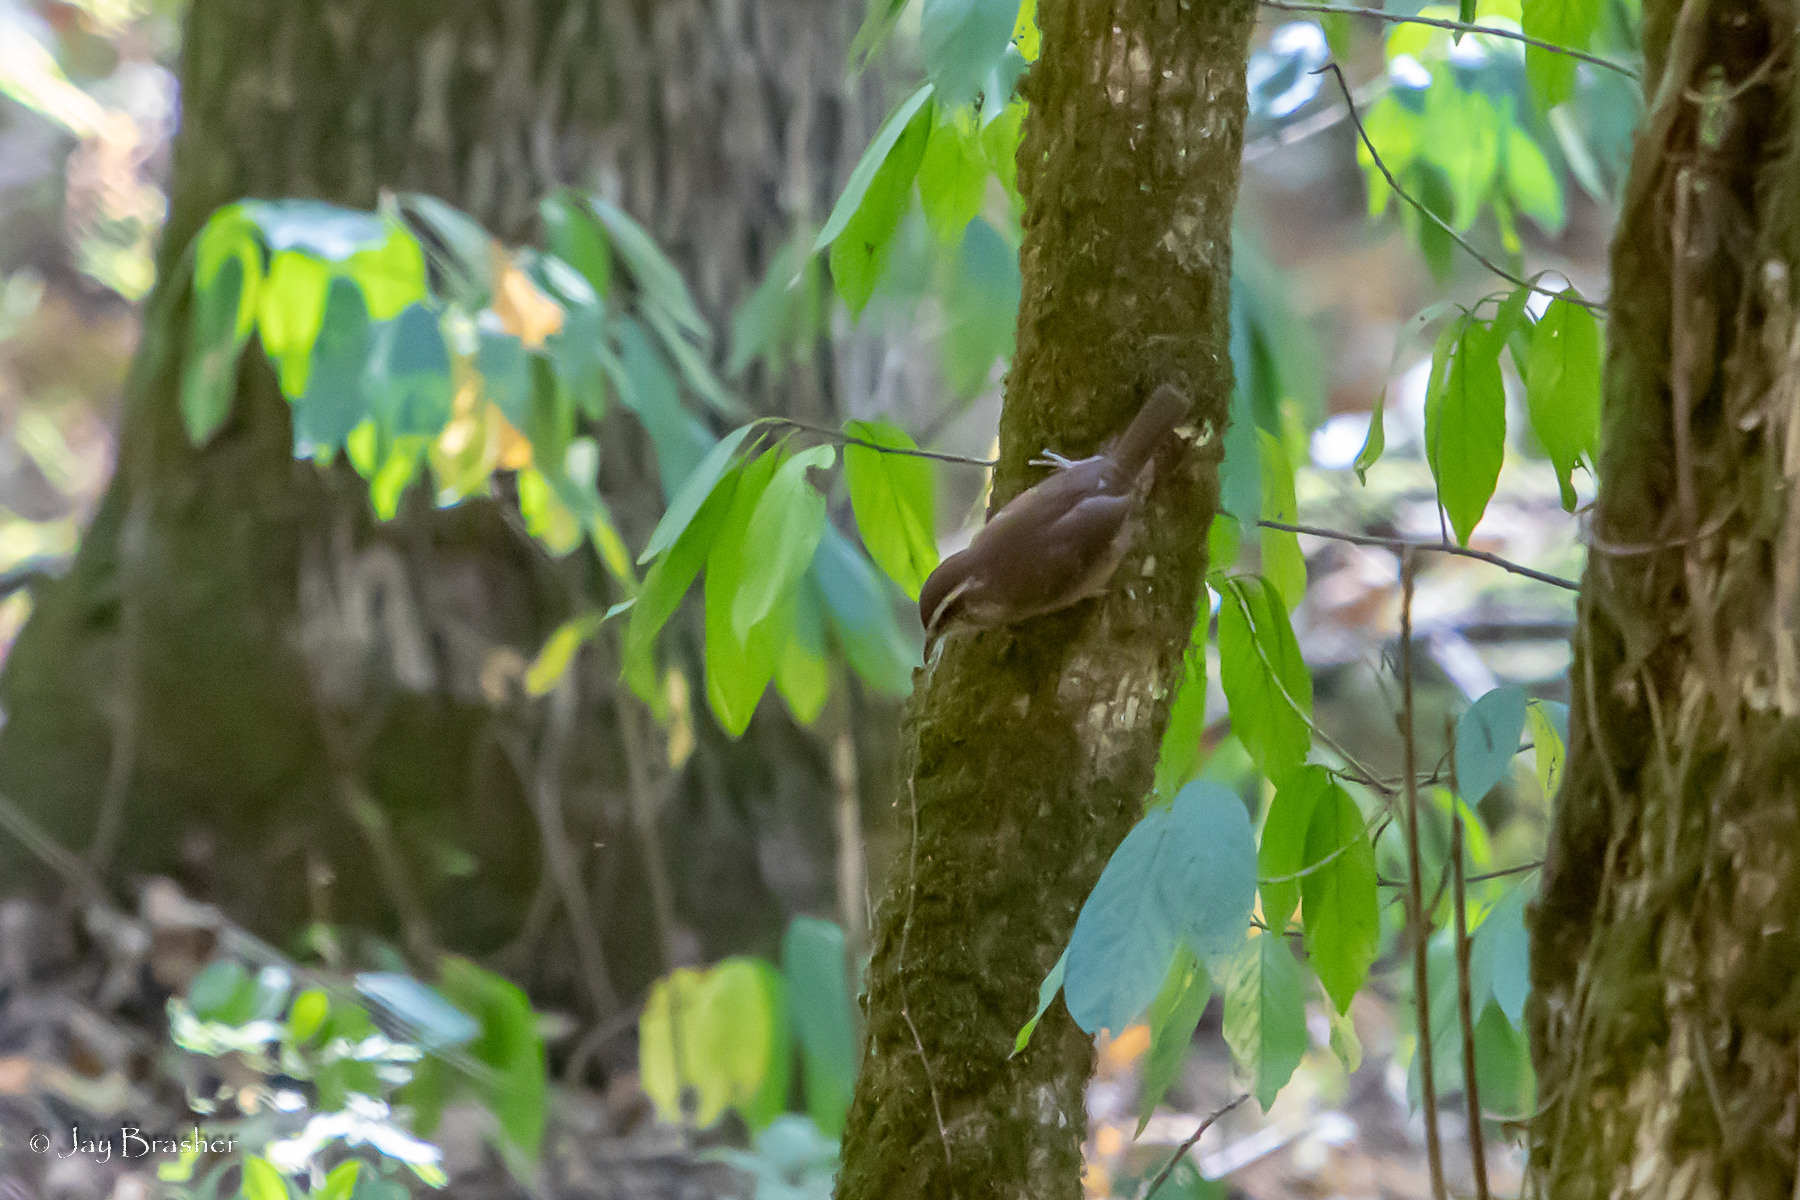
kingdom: Animalia
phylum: Chordata
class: Aves
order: Passeriformes
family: Troglodytidae
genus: Thryothorus
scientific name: Thryothorus ludovicianus
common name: Carolina wren
